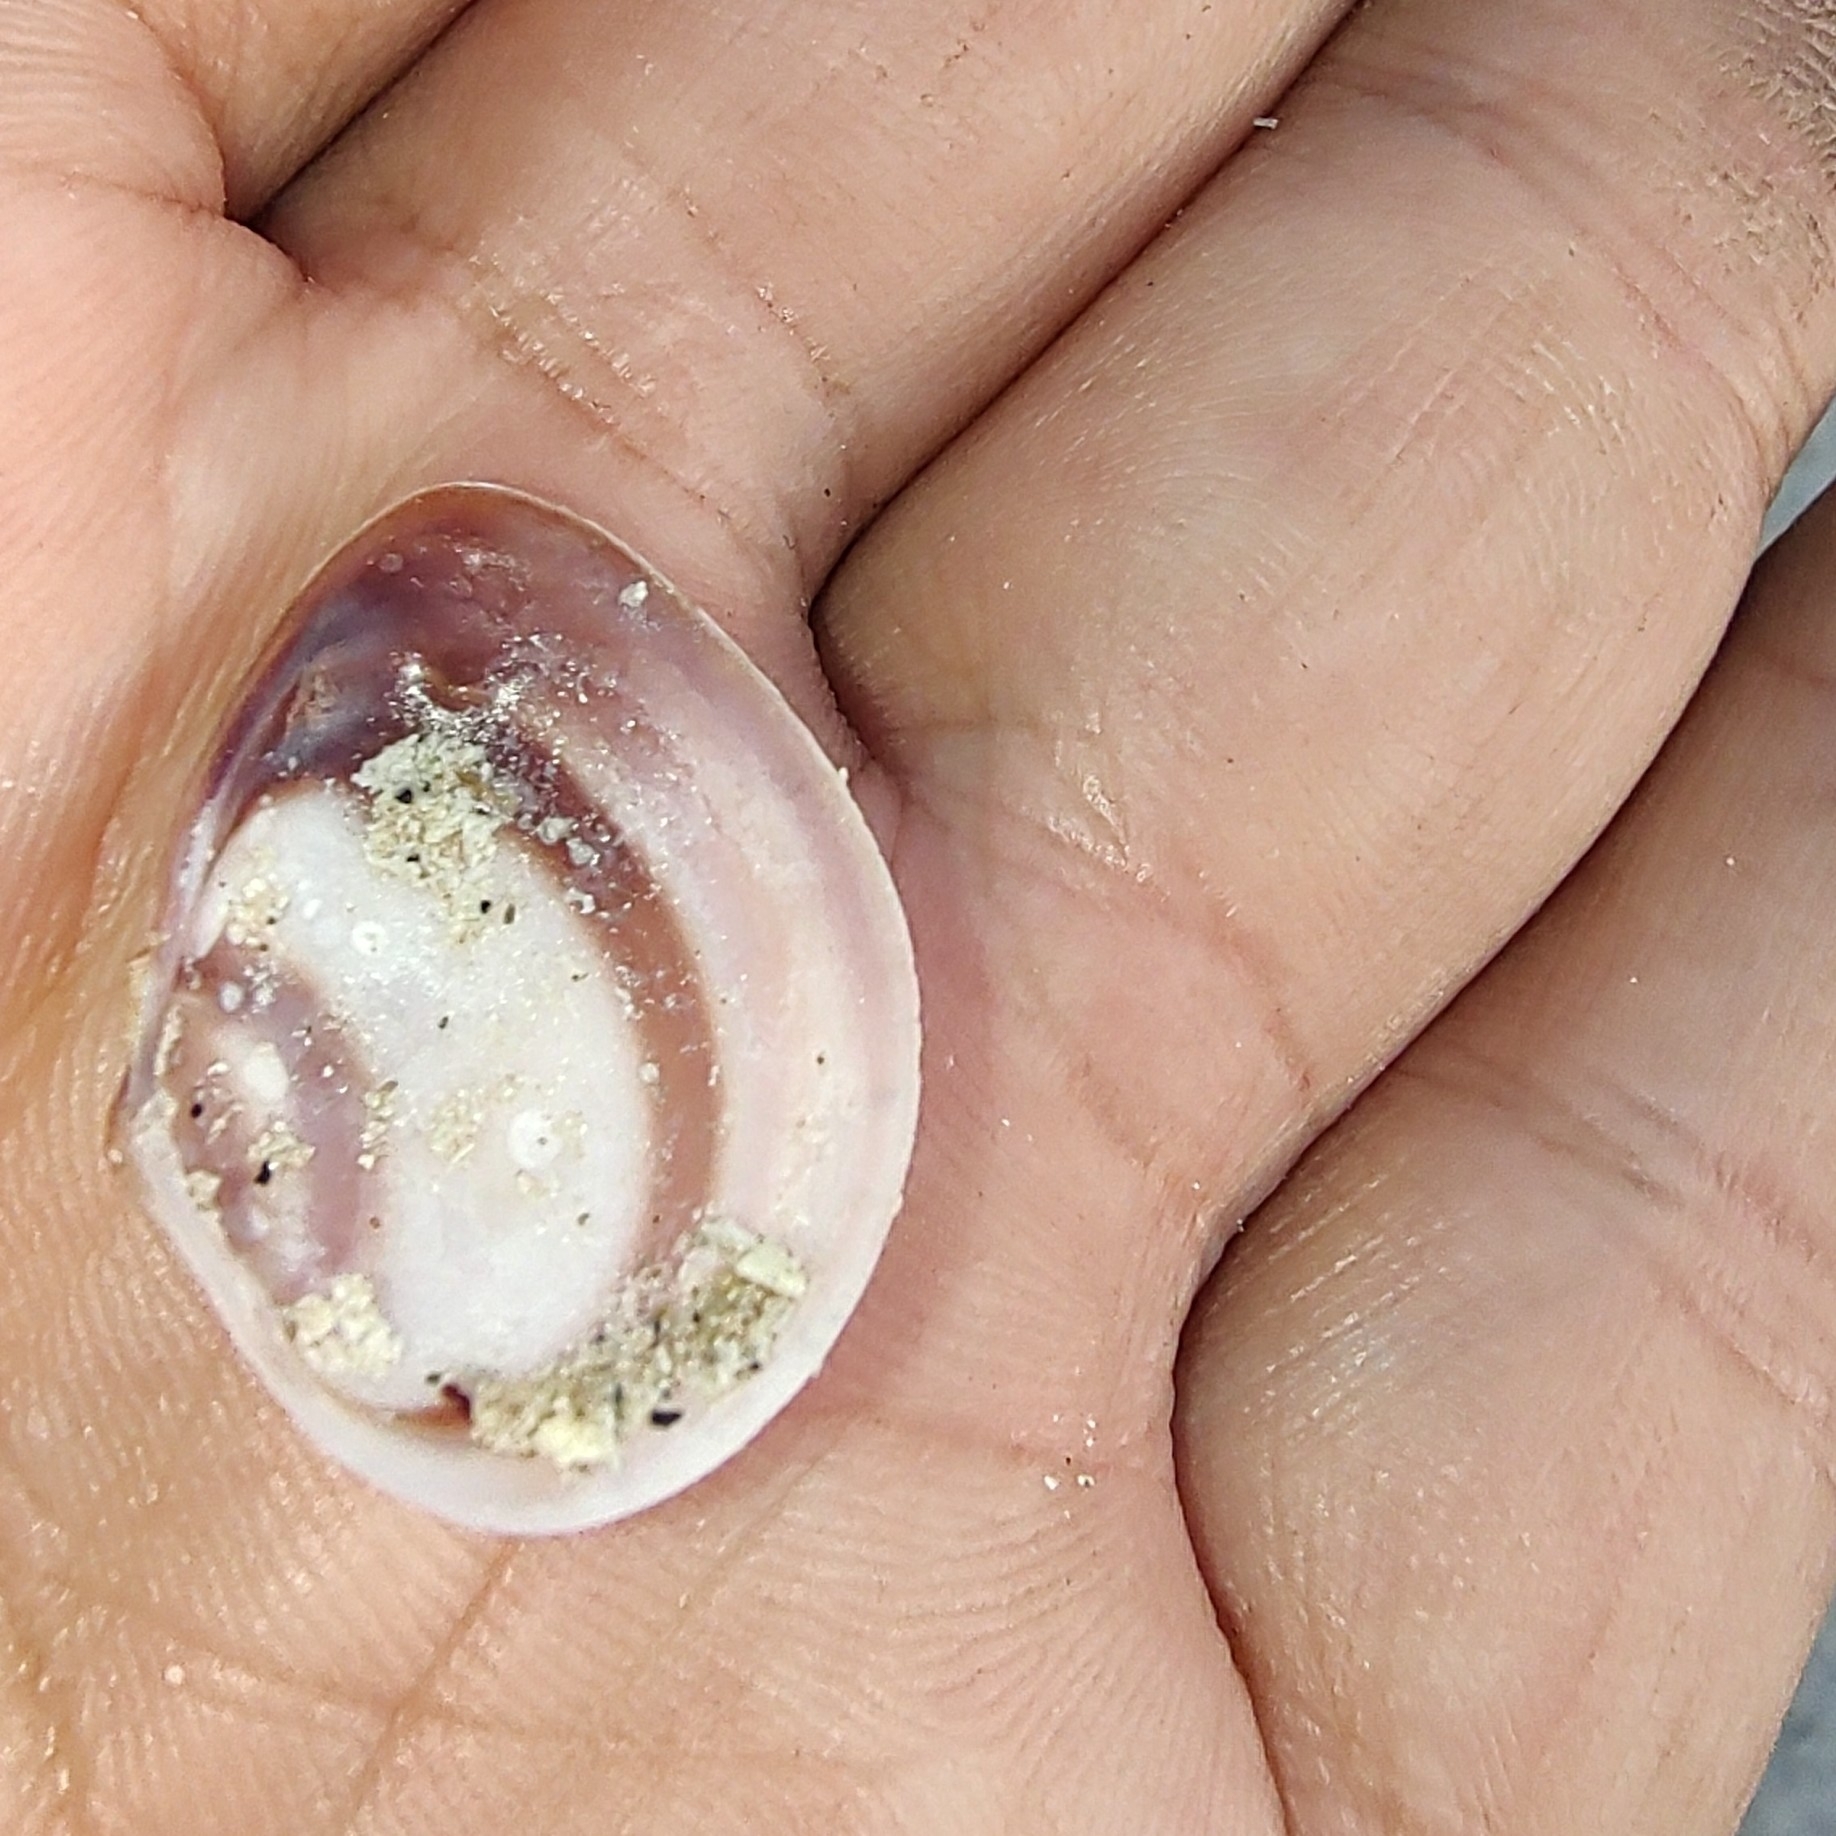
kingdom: Animalia
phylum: Mollusca
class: Bivalvia
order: Venerida
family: Veneridae
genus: Chione
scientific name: Chione elevata
